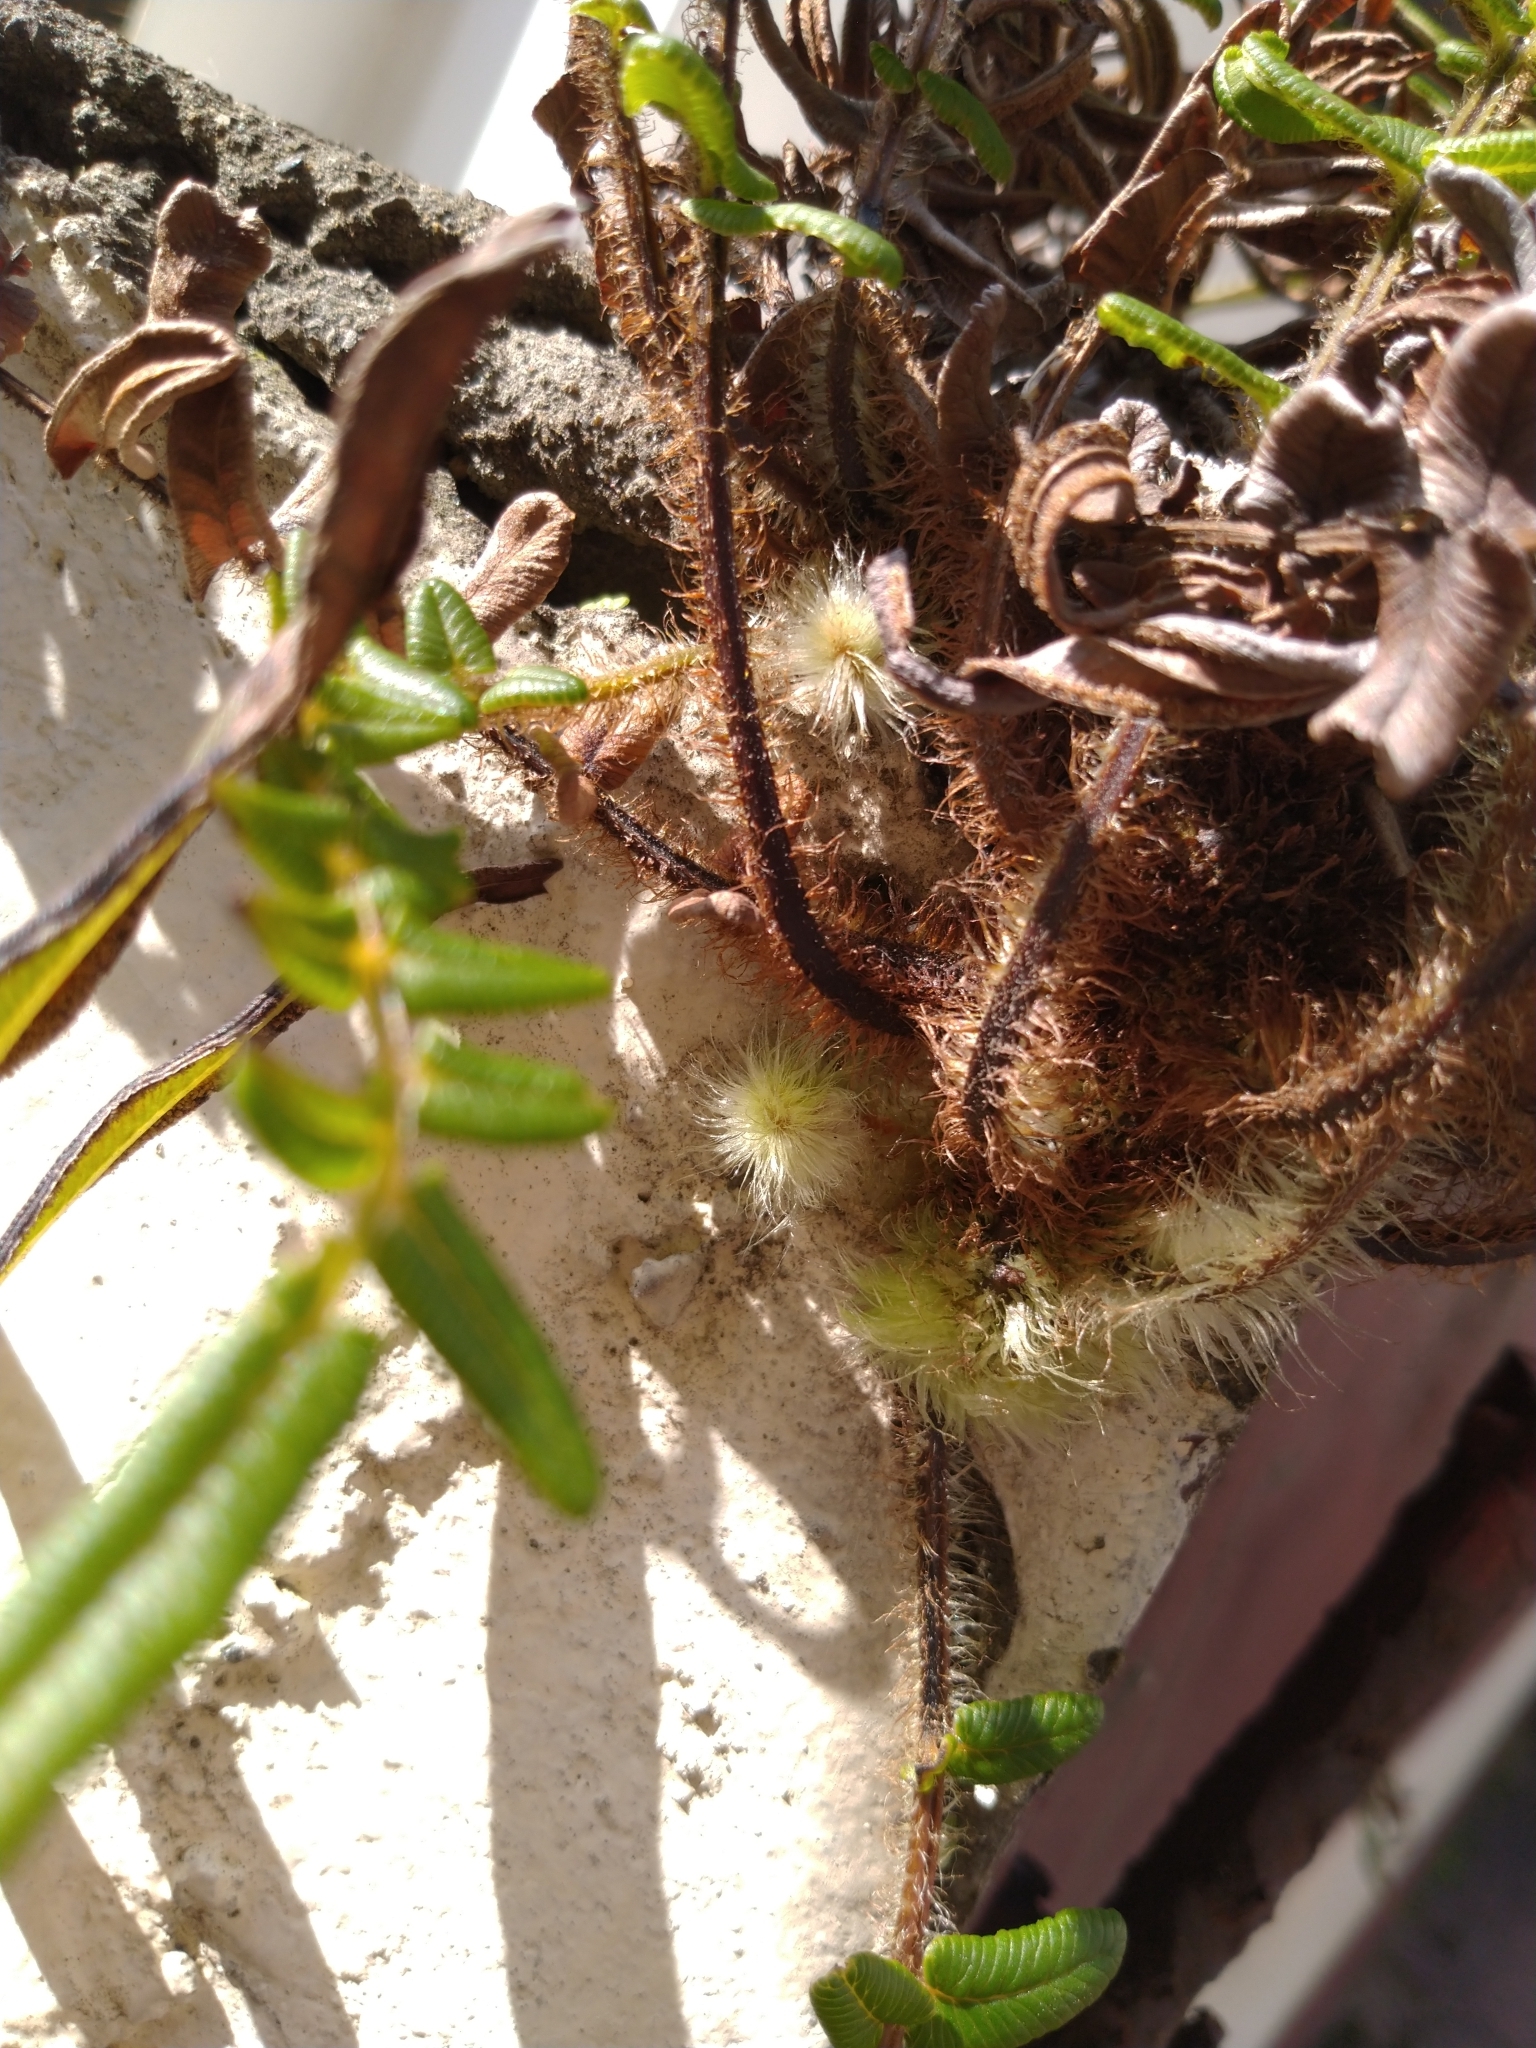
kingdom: Plantae
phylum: Tracheophyta
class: Polypodiopsida
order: Polypodiales
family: Pteridaceae
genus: Pteris
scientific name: Pteris vittata
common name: Ladder brake
